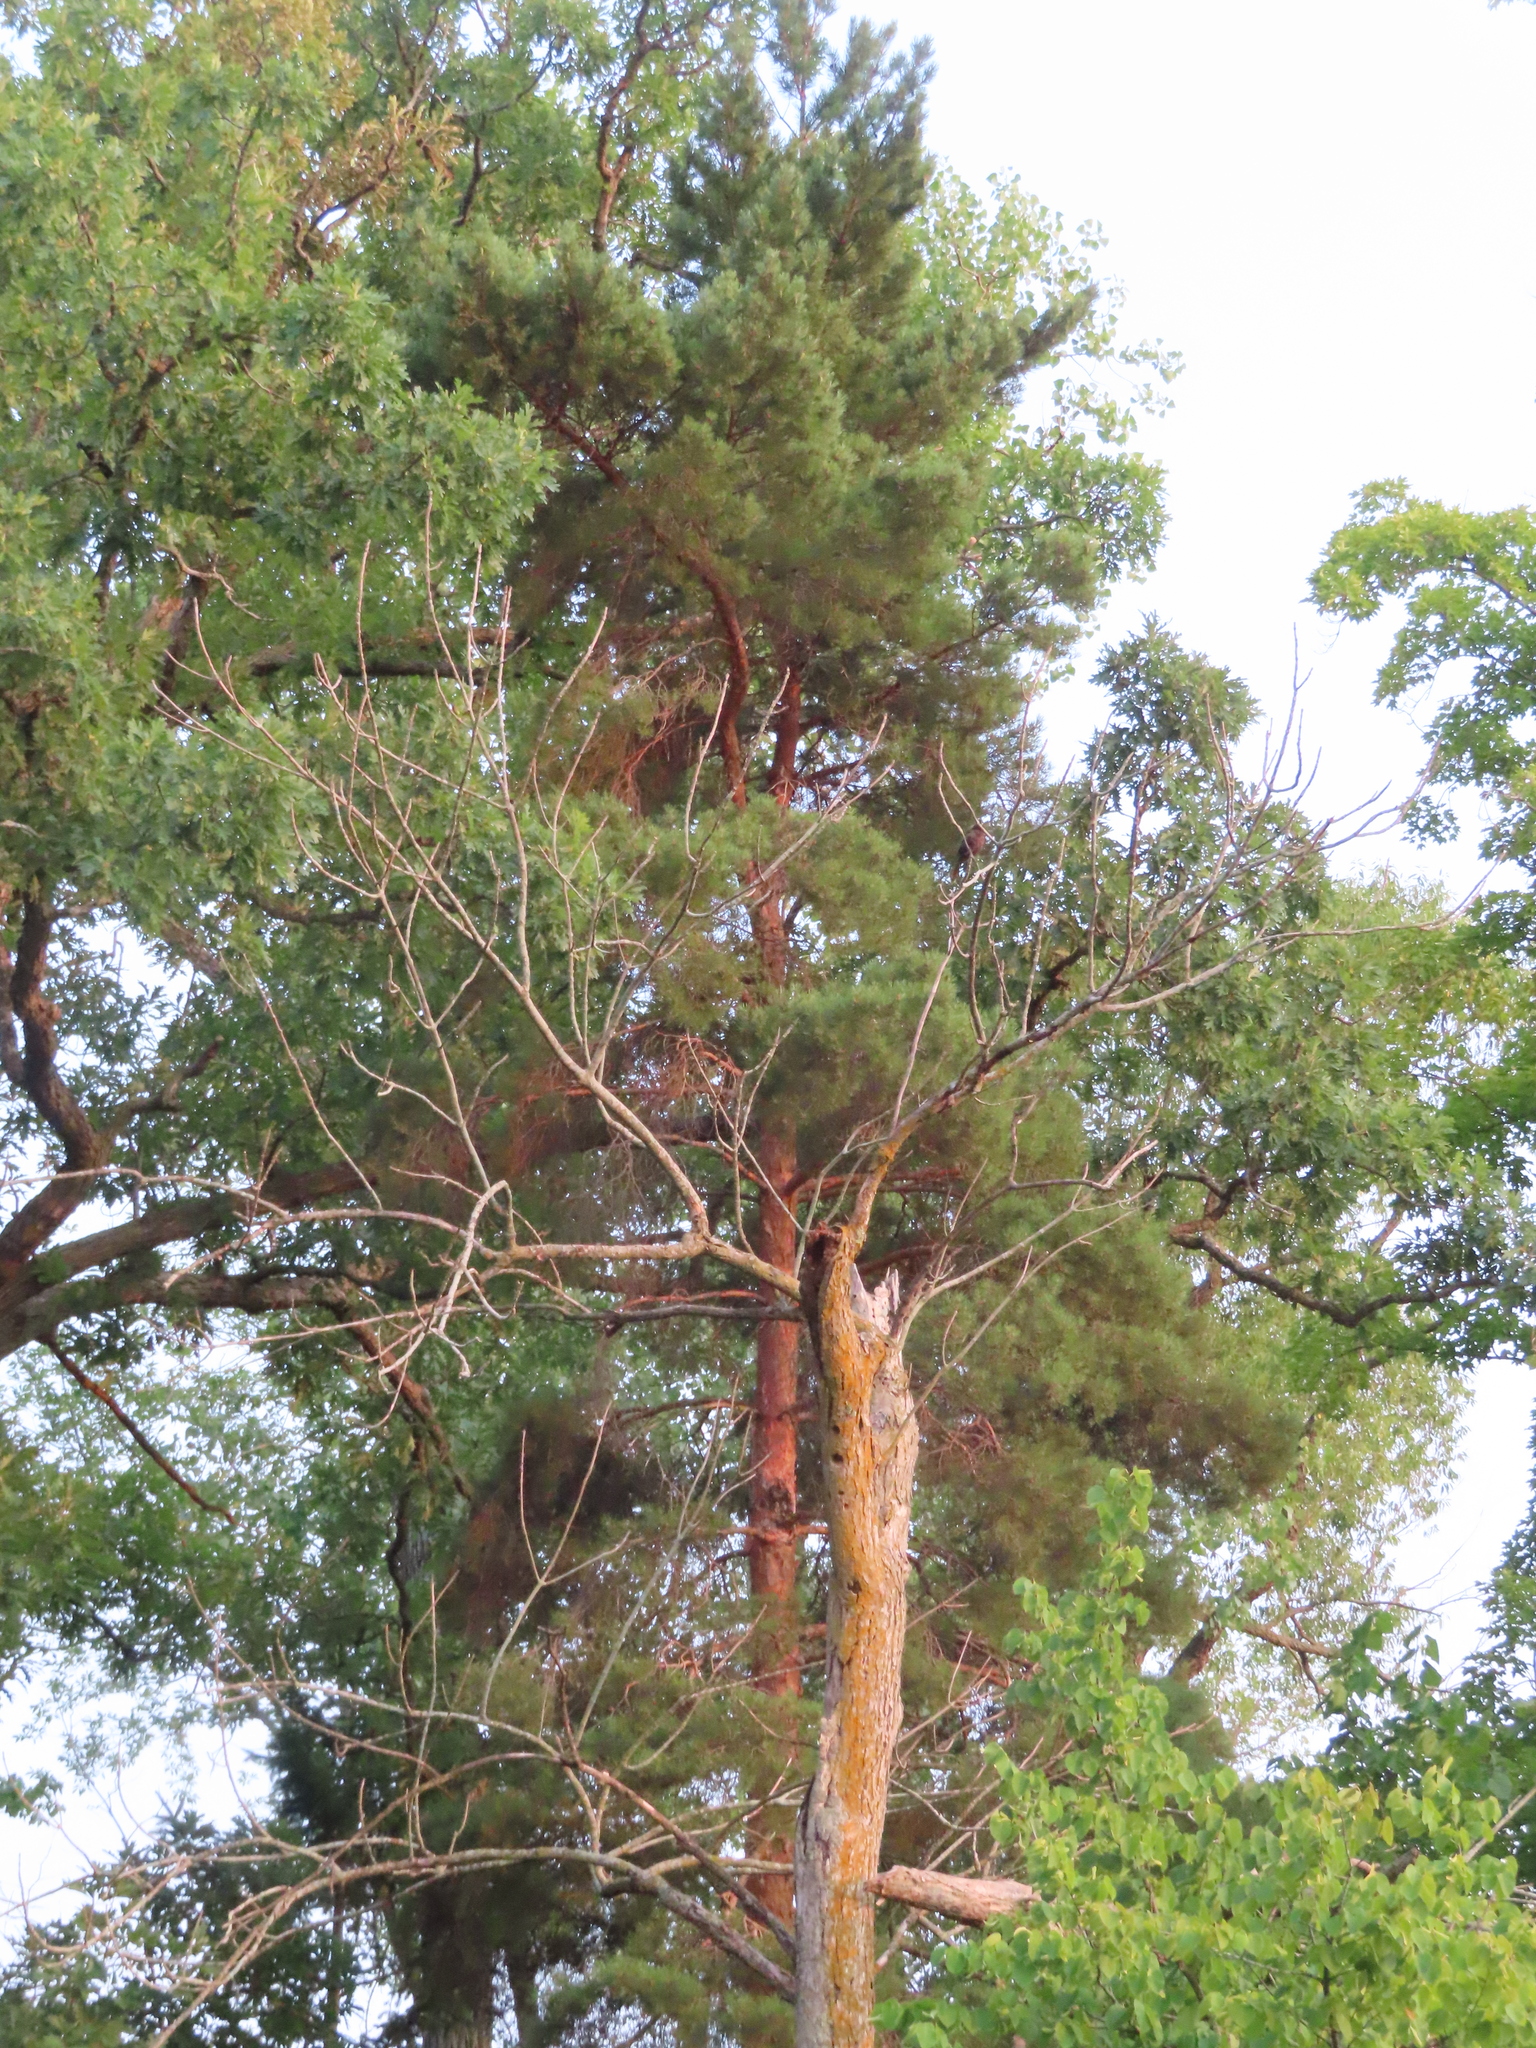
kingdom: Plantae
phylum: Tracheophyta
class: Pinopsida
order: Pinales
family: Pinaceae
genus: Pinus
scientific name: Pinus sylvestris
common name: Scots pine
